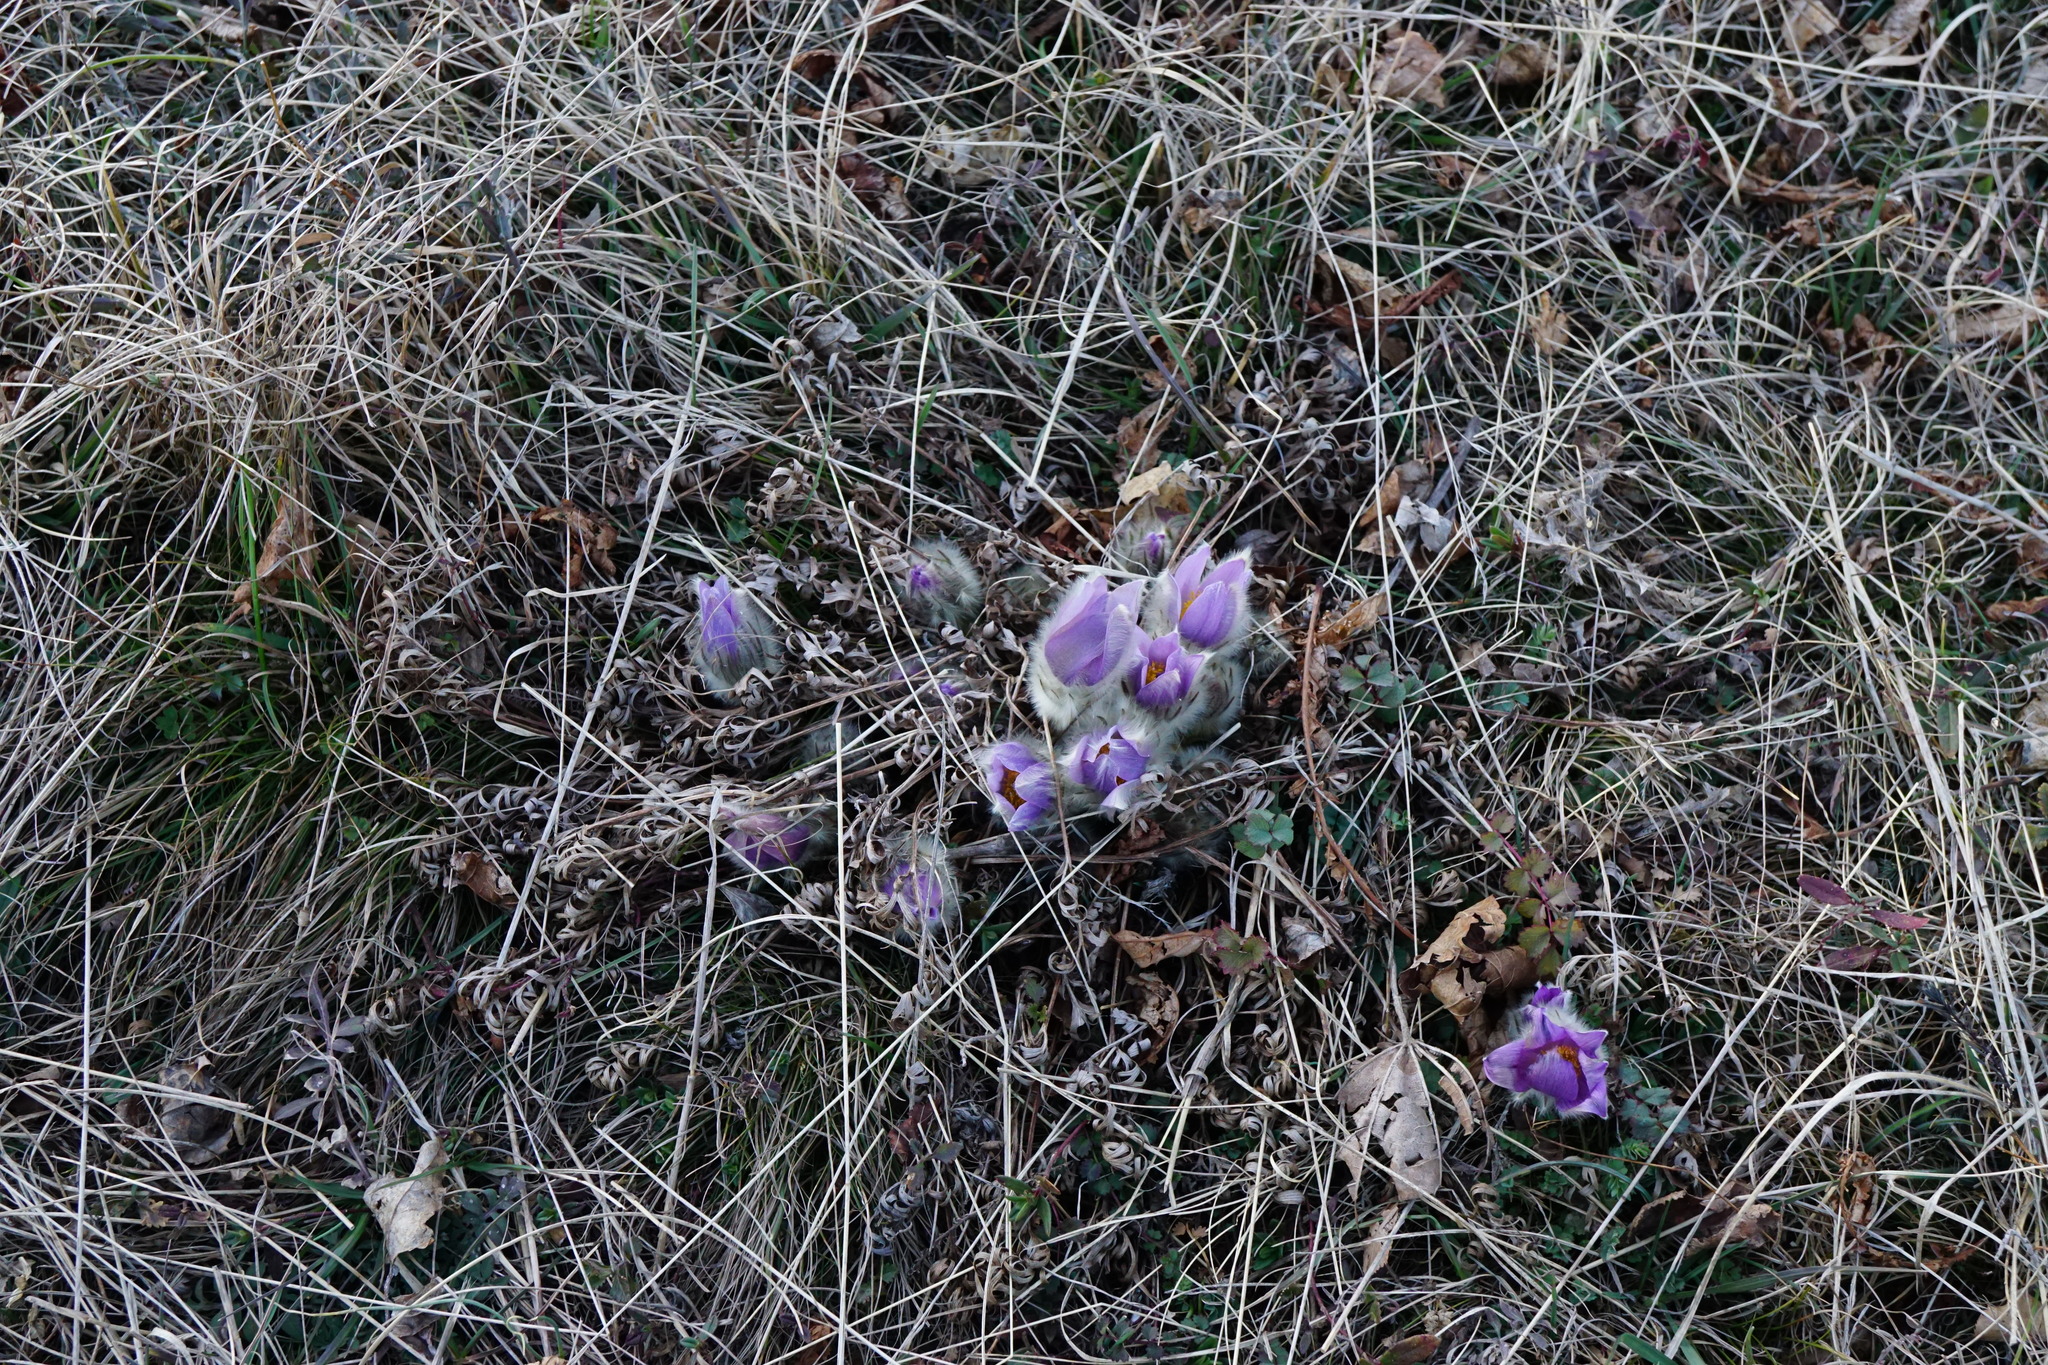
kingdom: Plantae
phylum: Tracheophyta
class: Magnoliopsida
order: Ranunculales
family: Ranunculaceae
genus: Pulsatilla
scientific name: Pulsatilla grandis
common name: Greater pasque flower
